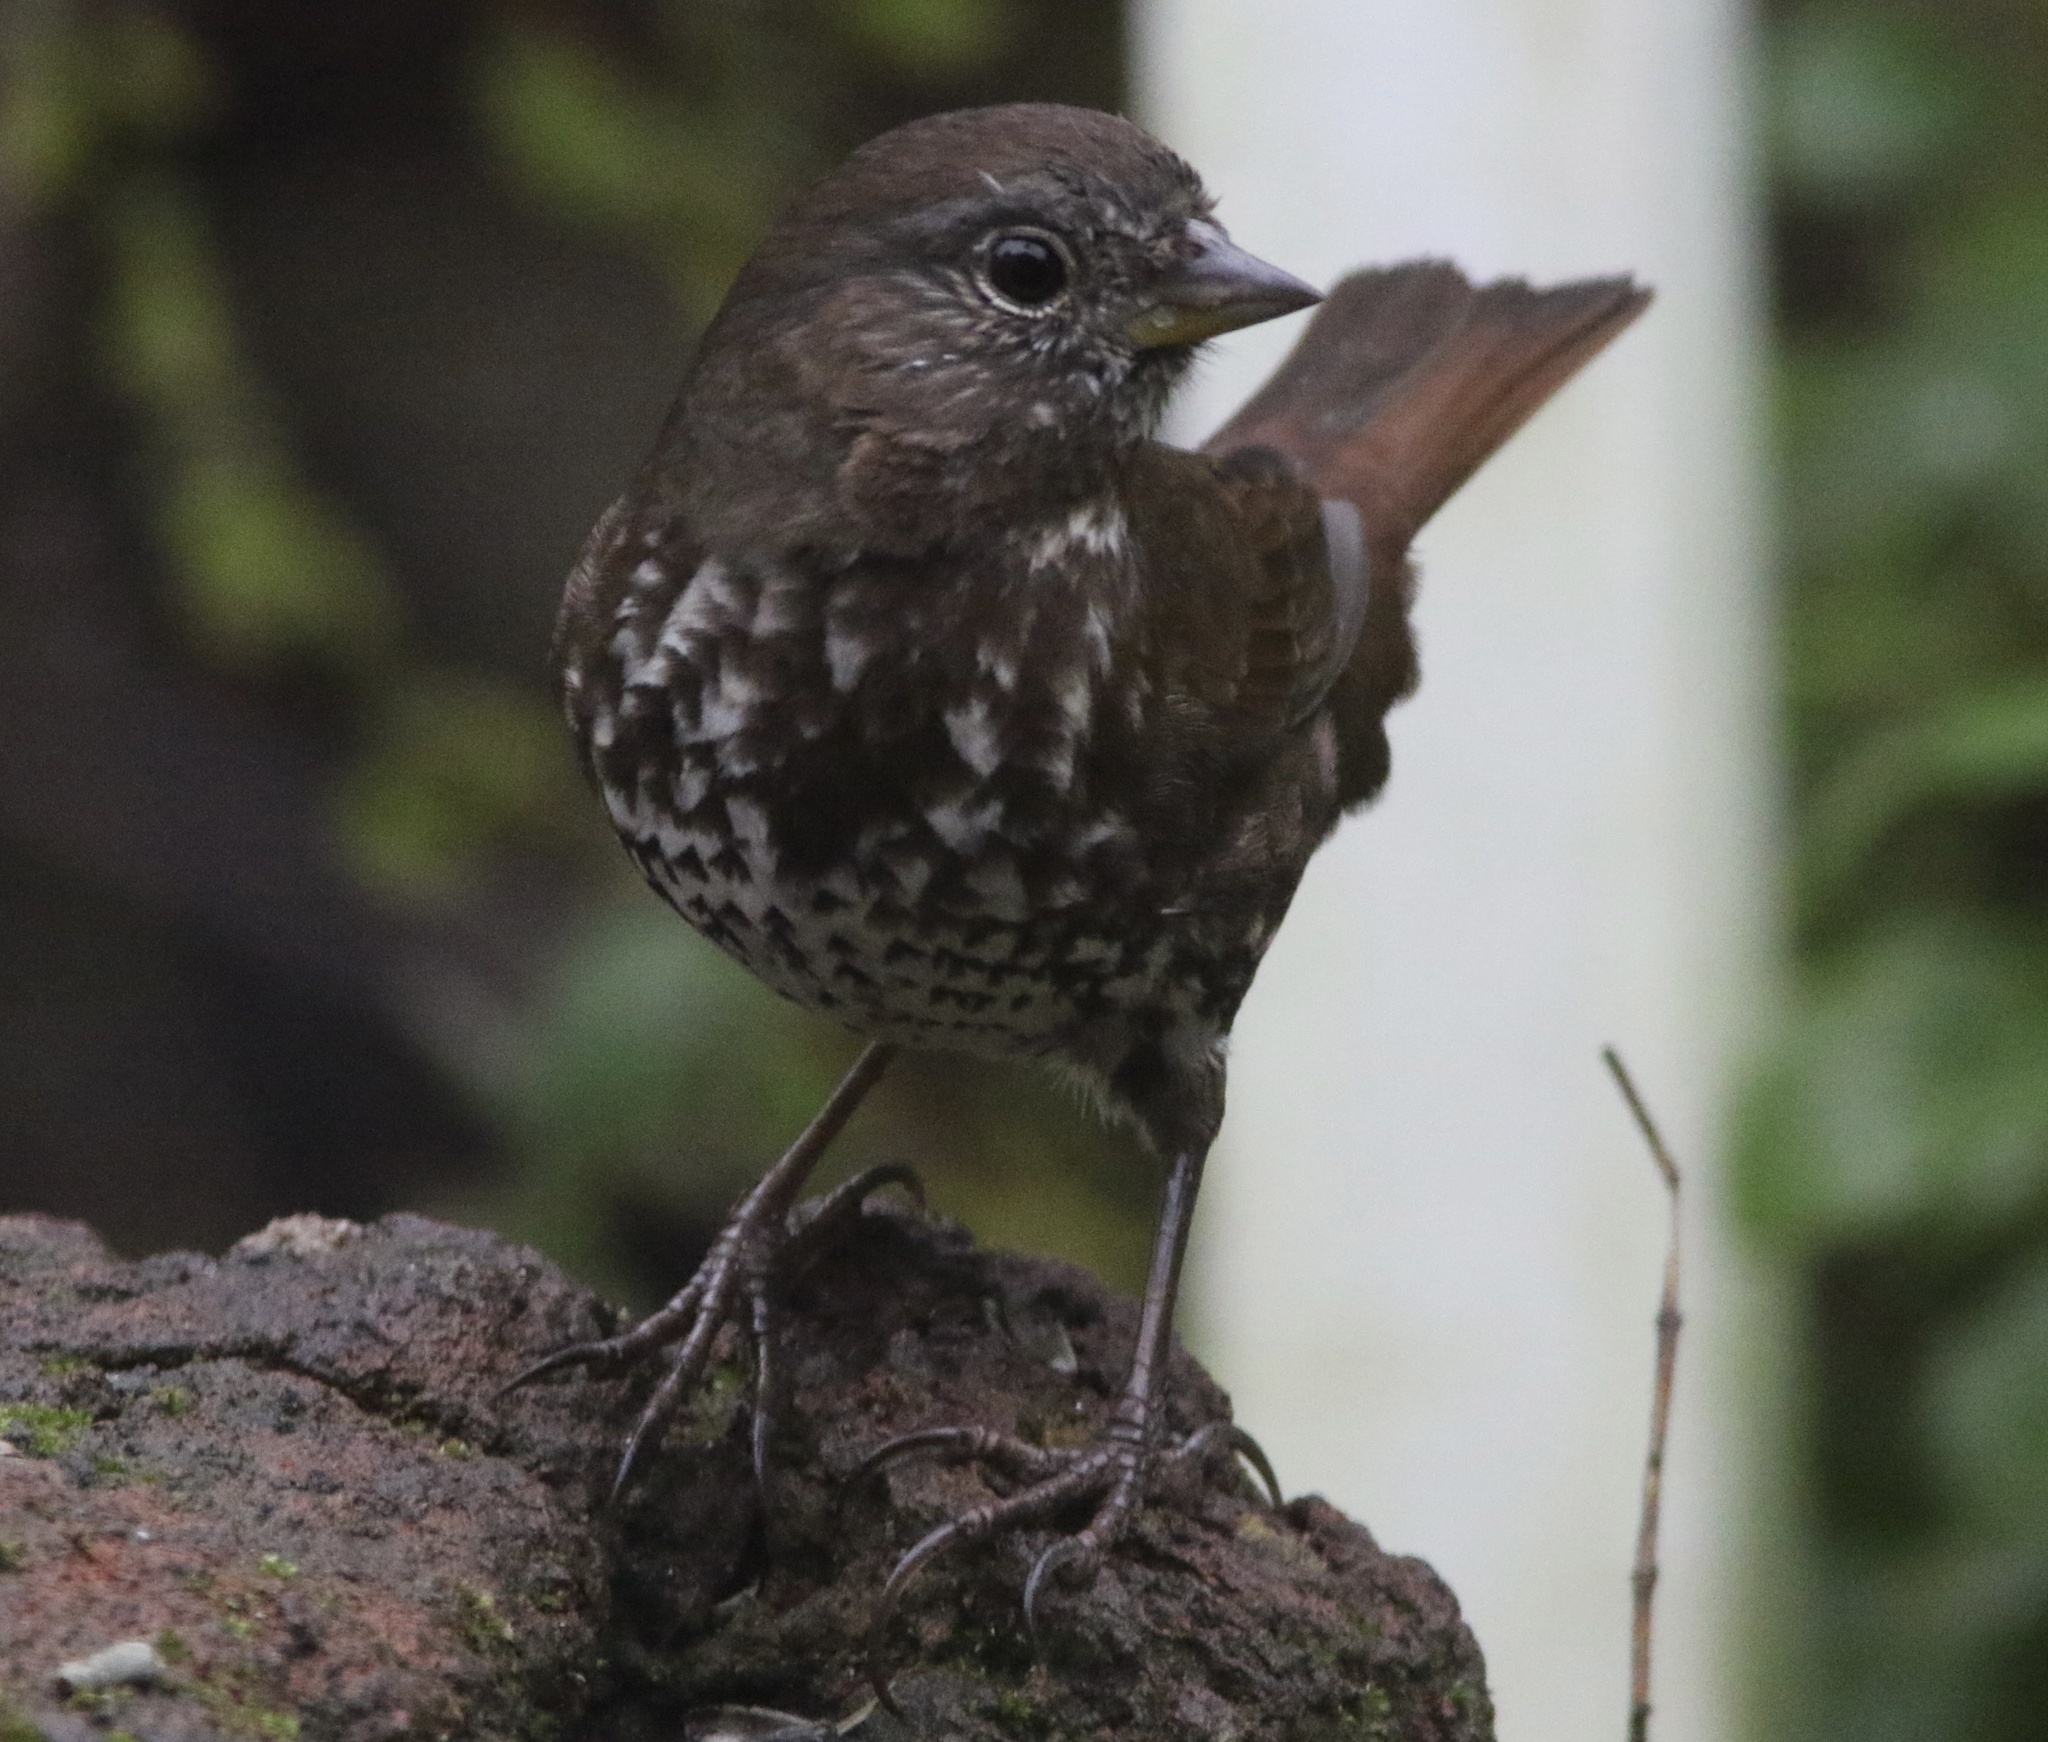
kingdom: Animalia
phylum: Chordata
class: Aves
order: Passeriformes
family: Passerellidae
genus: Passerella
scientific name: Passerella iliaca
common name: Fox sparrow
